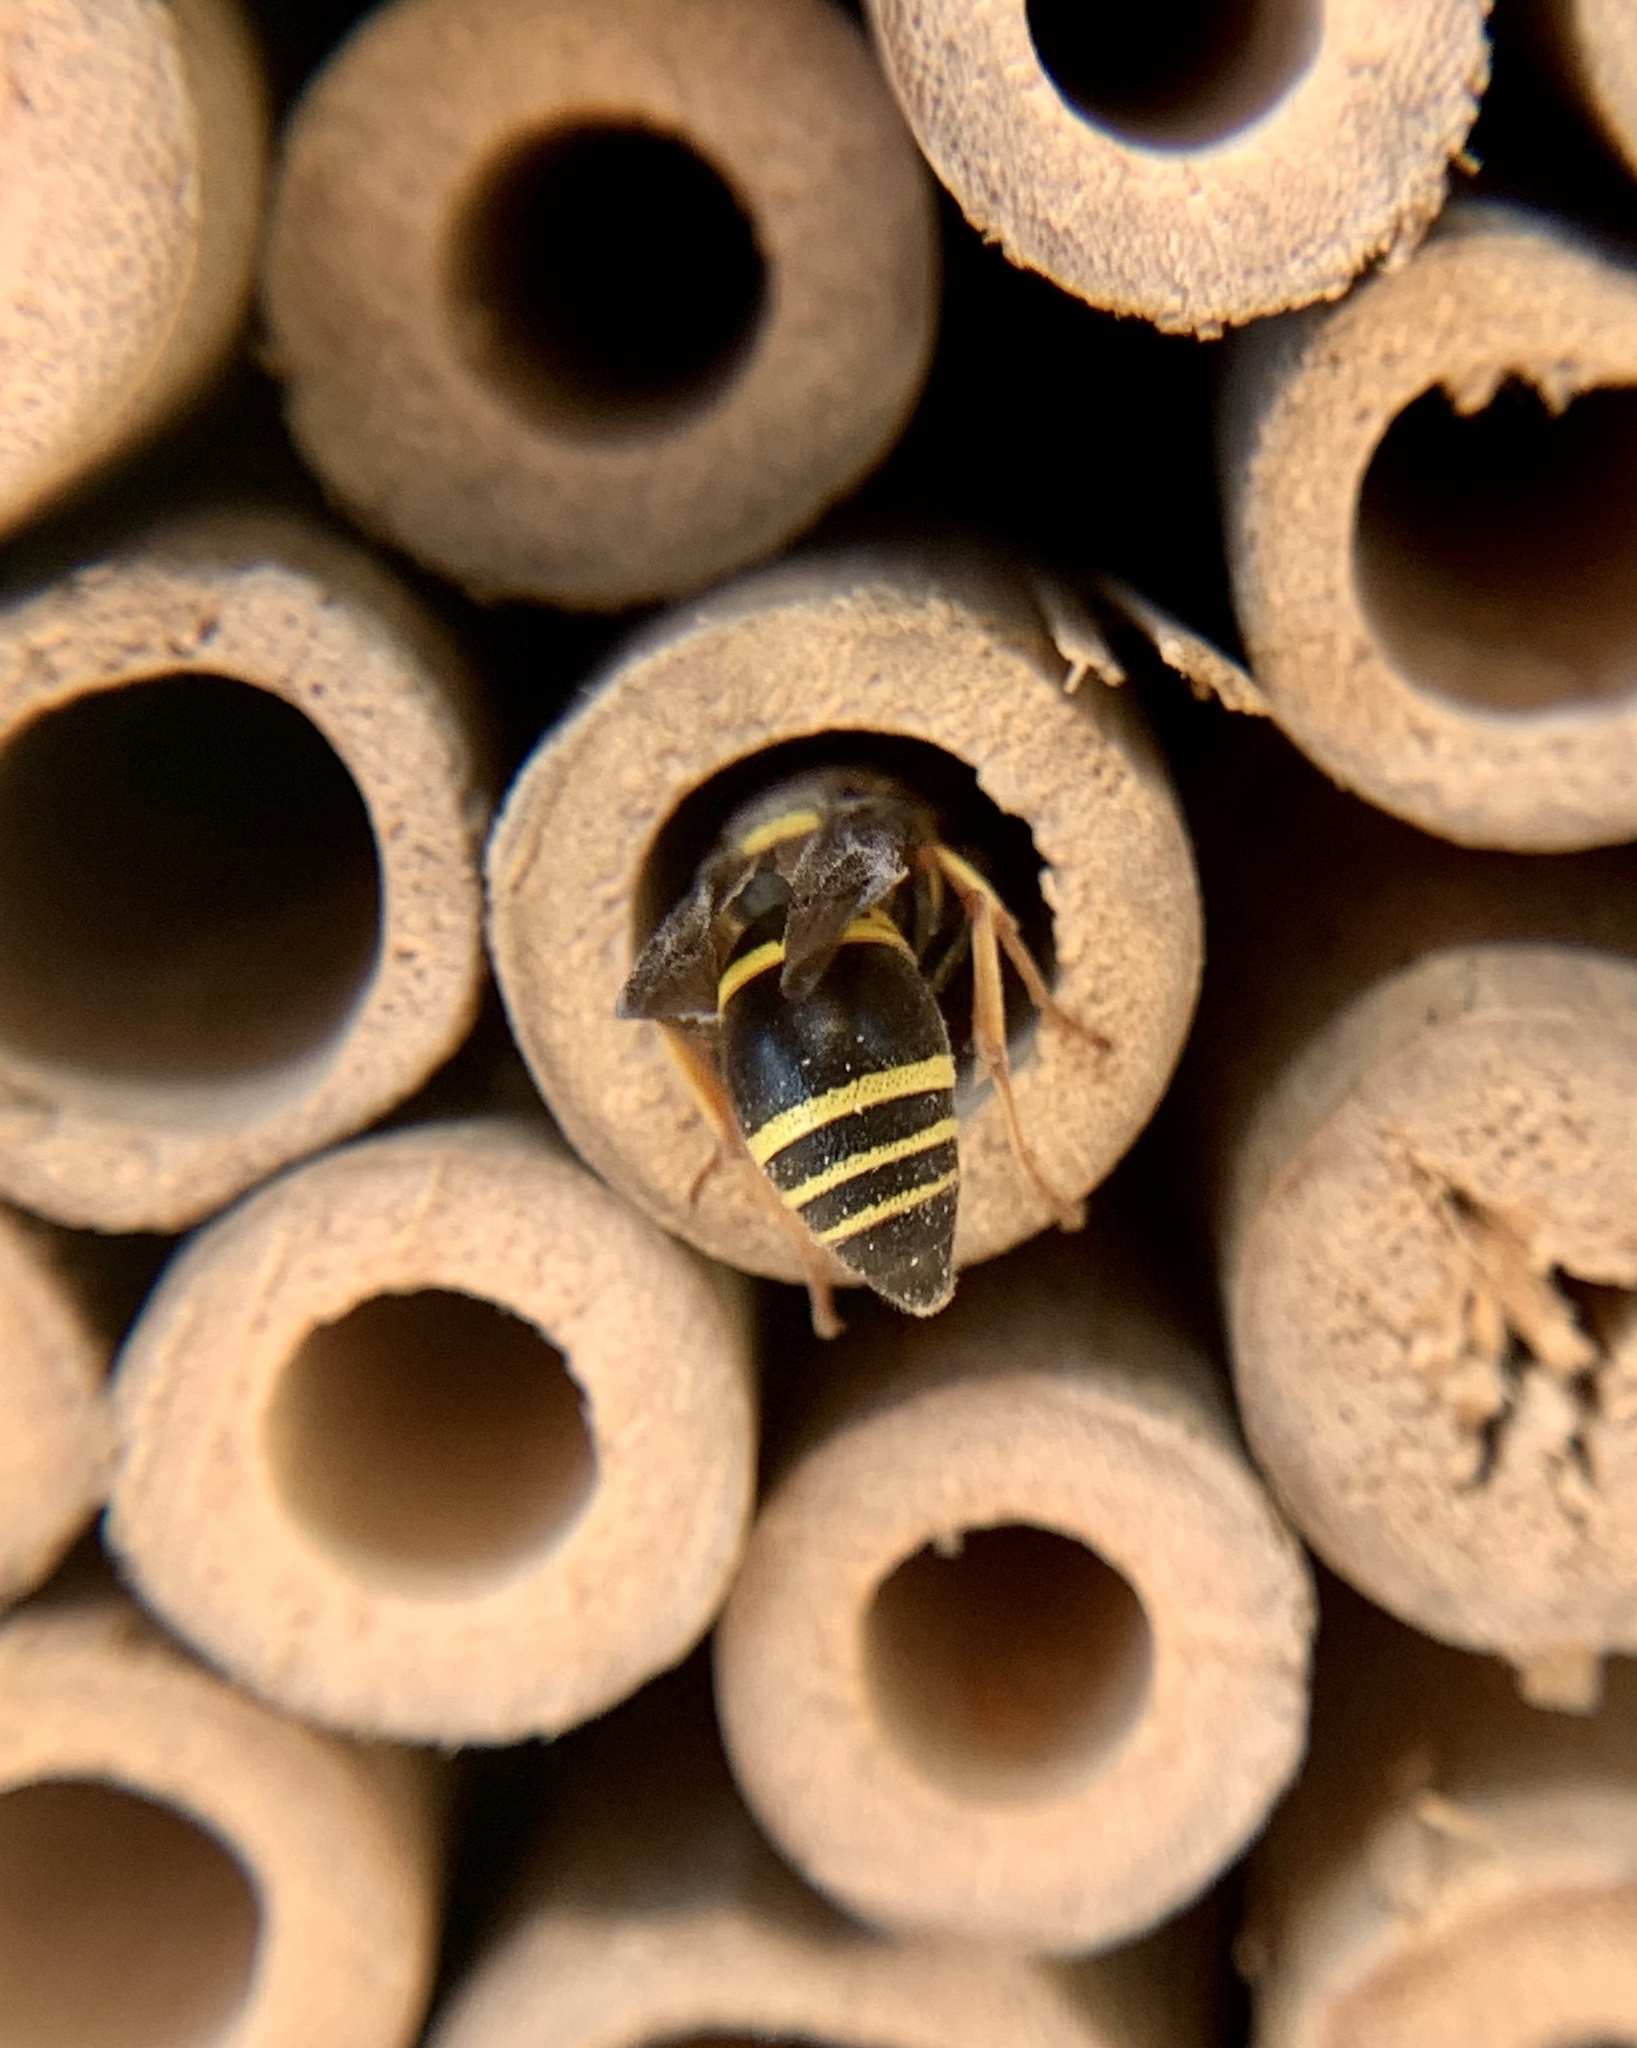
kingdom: Animalia
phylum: Arthropoda
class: Insecta
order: Hymenoptera
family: Eumenidae
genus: Euodynerus
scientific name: Euodynerus
